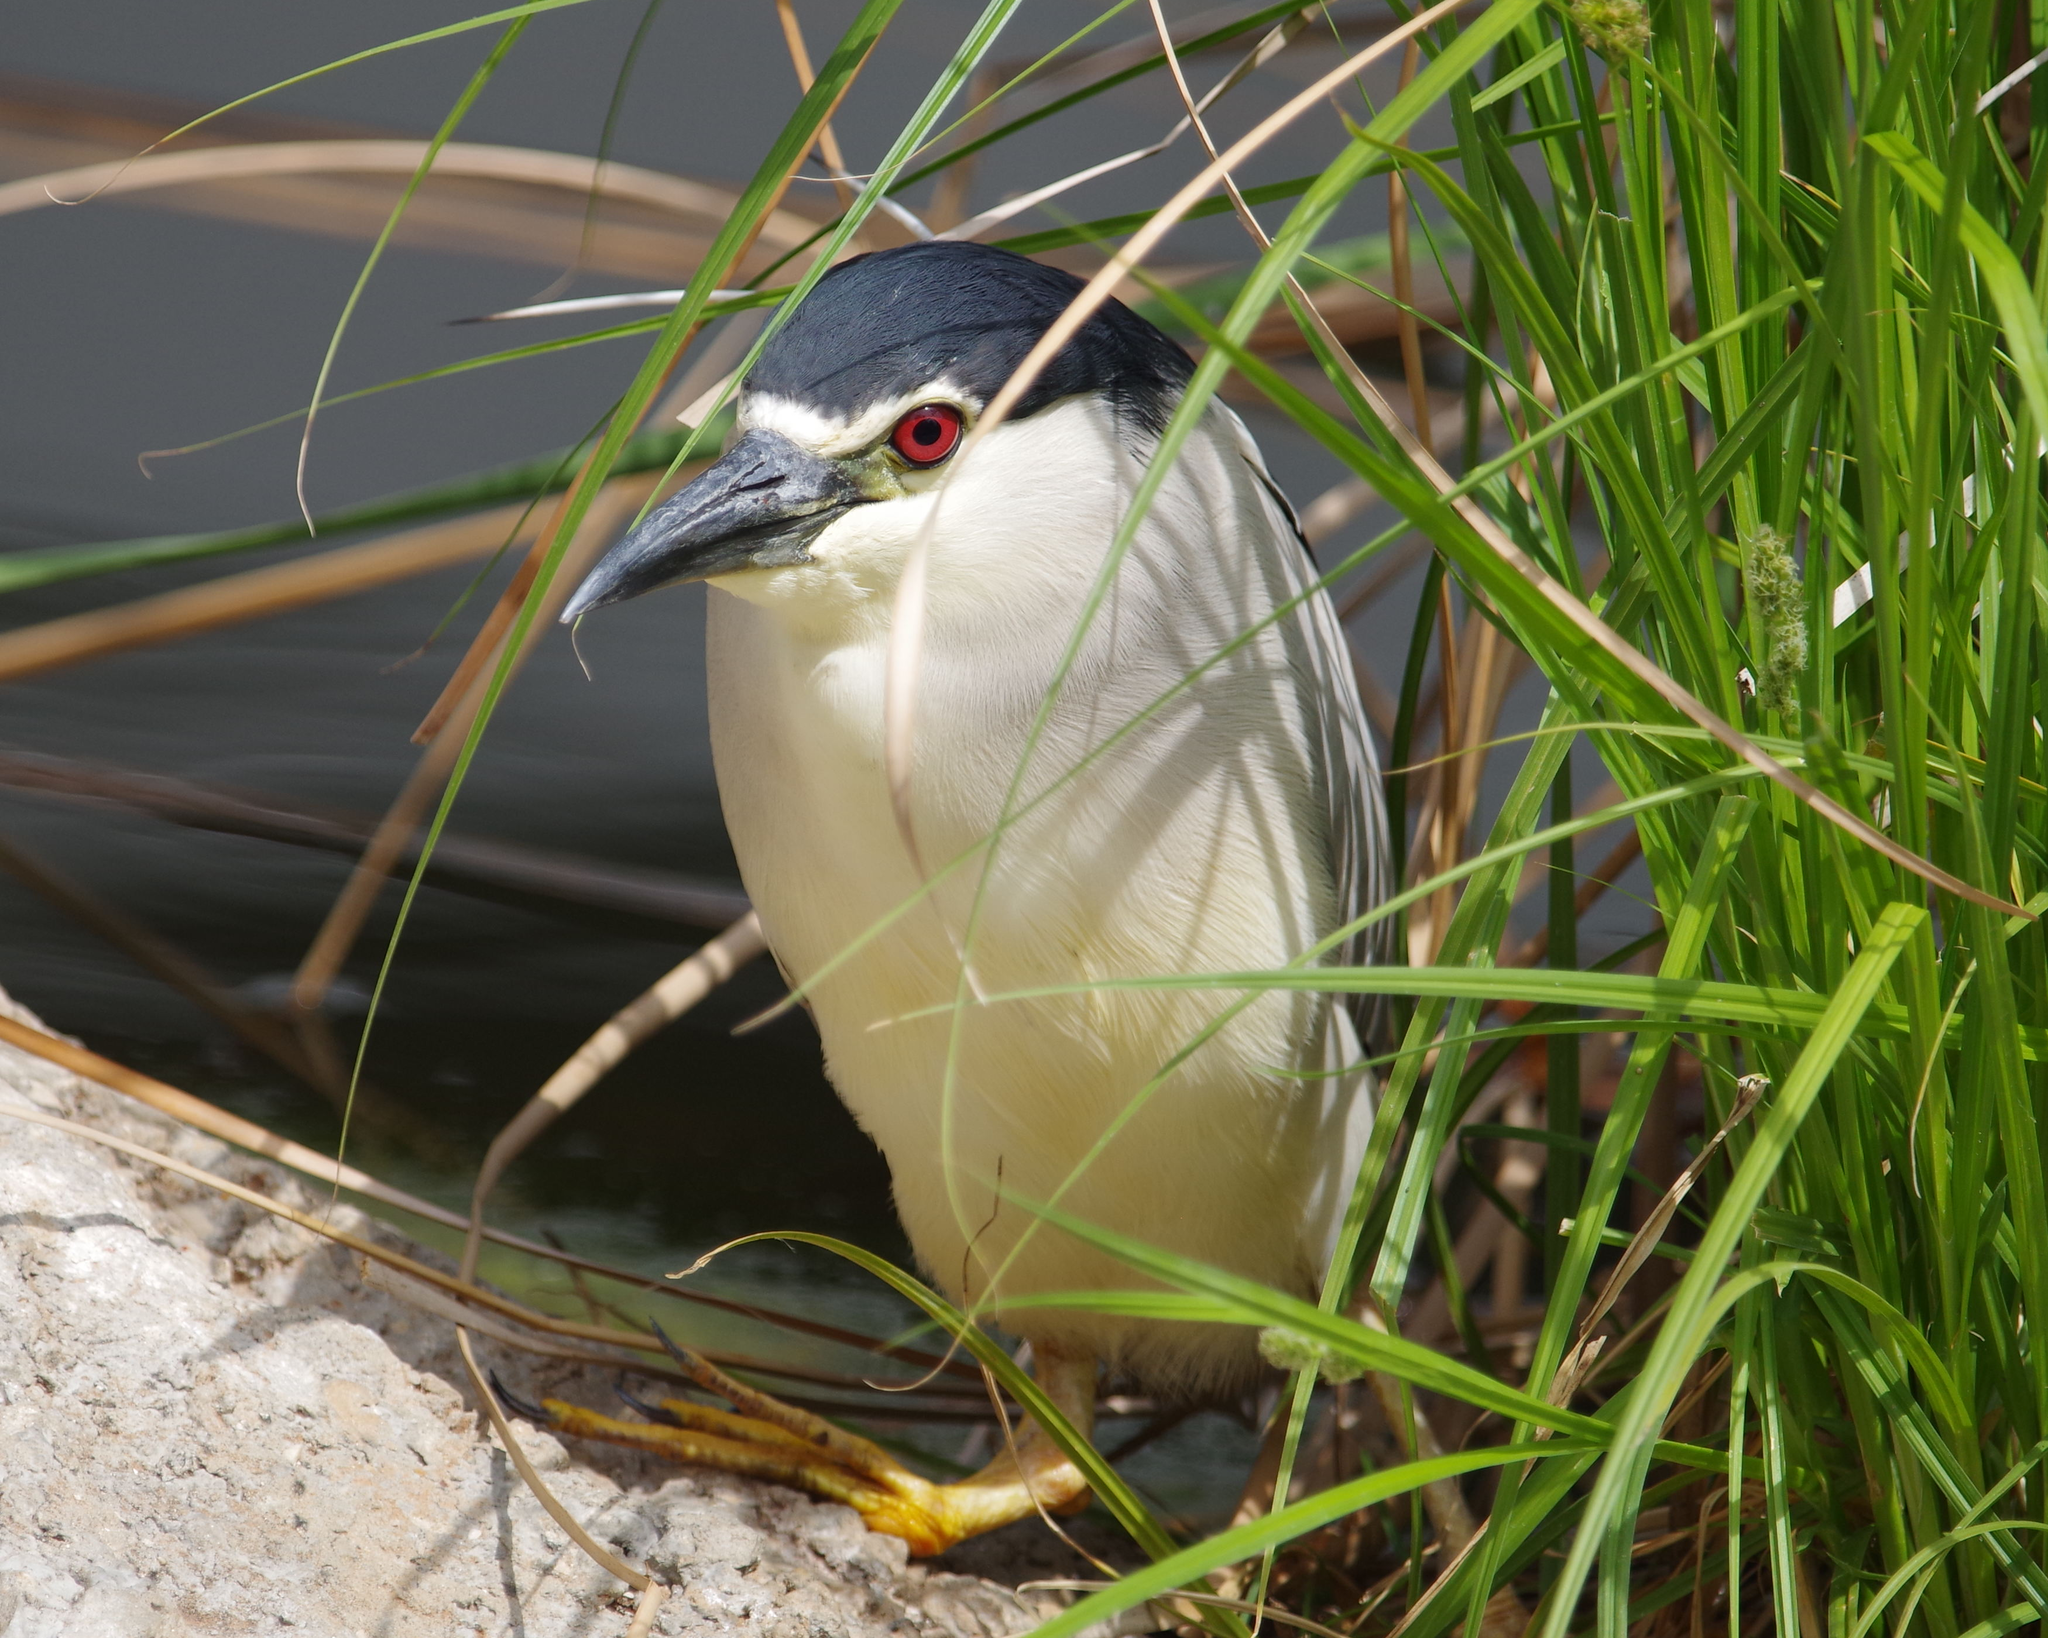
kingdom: Animalia
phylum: Chordata
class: Aves
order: Pelecaniformes
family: Ardeidae
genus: Nycticorax
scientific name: Nycticorax nycticorax
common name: Black-crowned night heron
